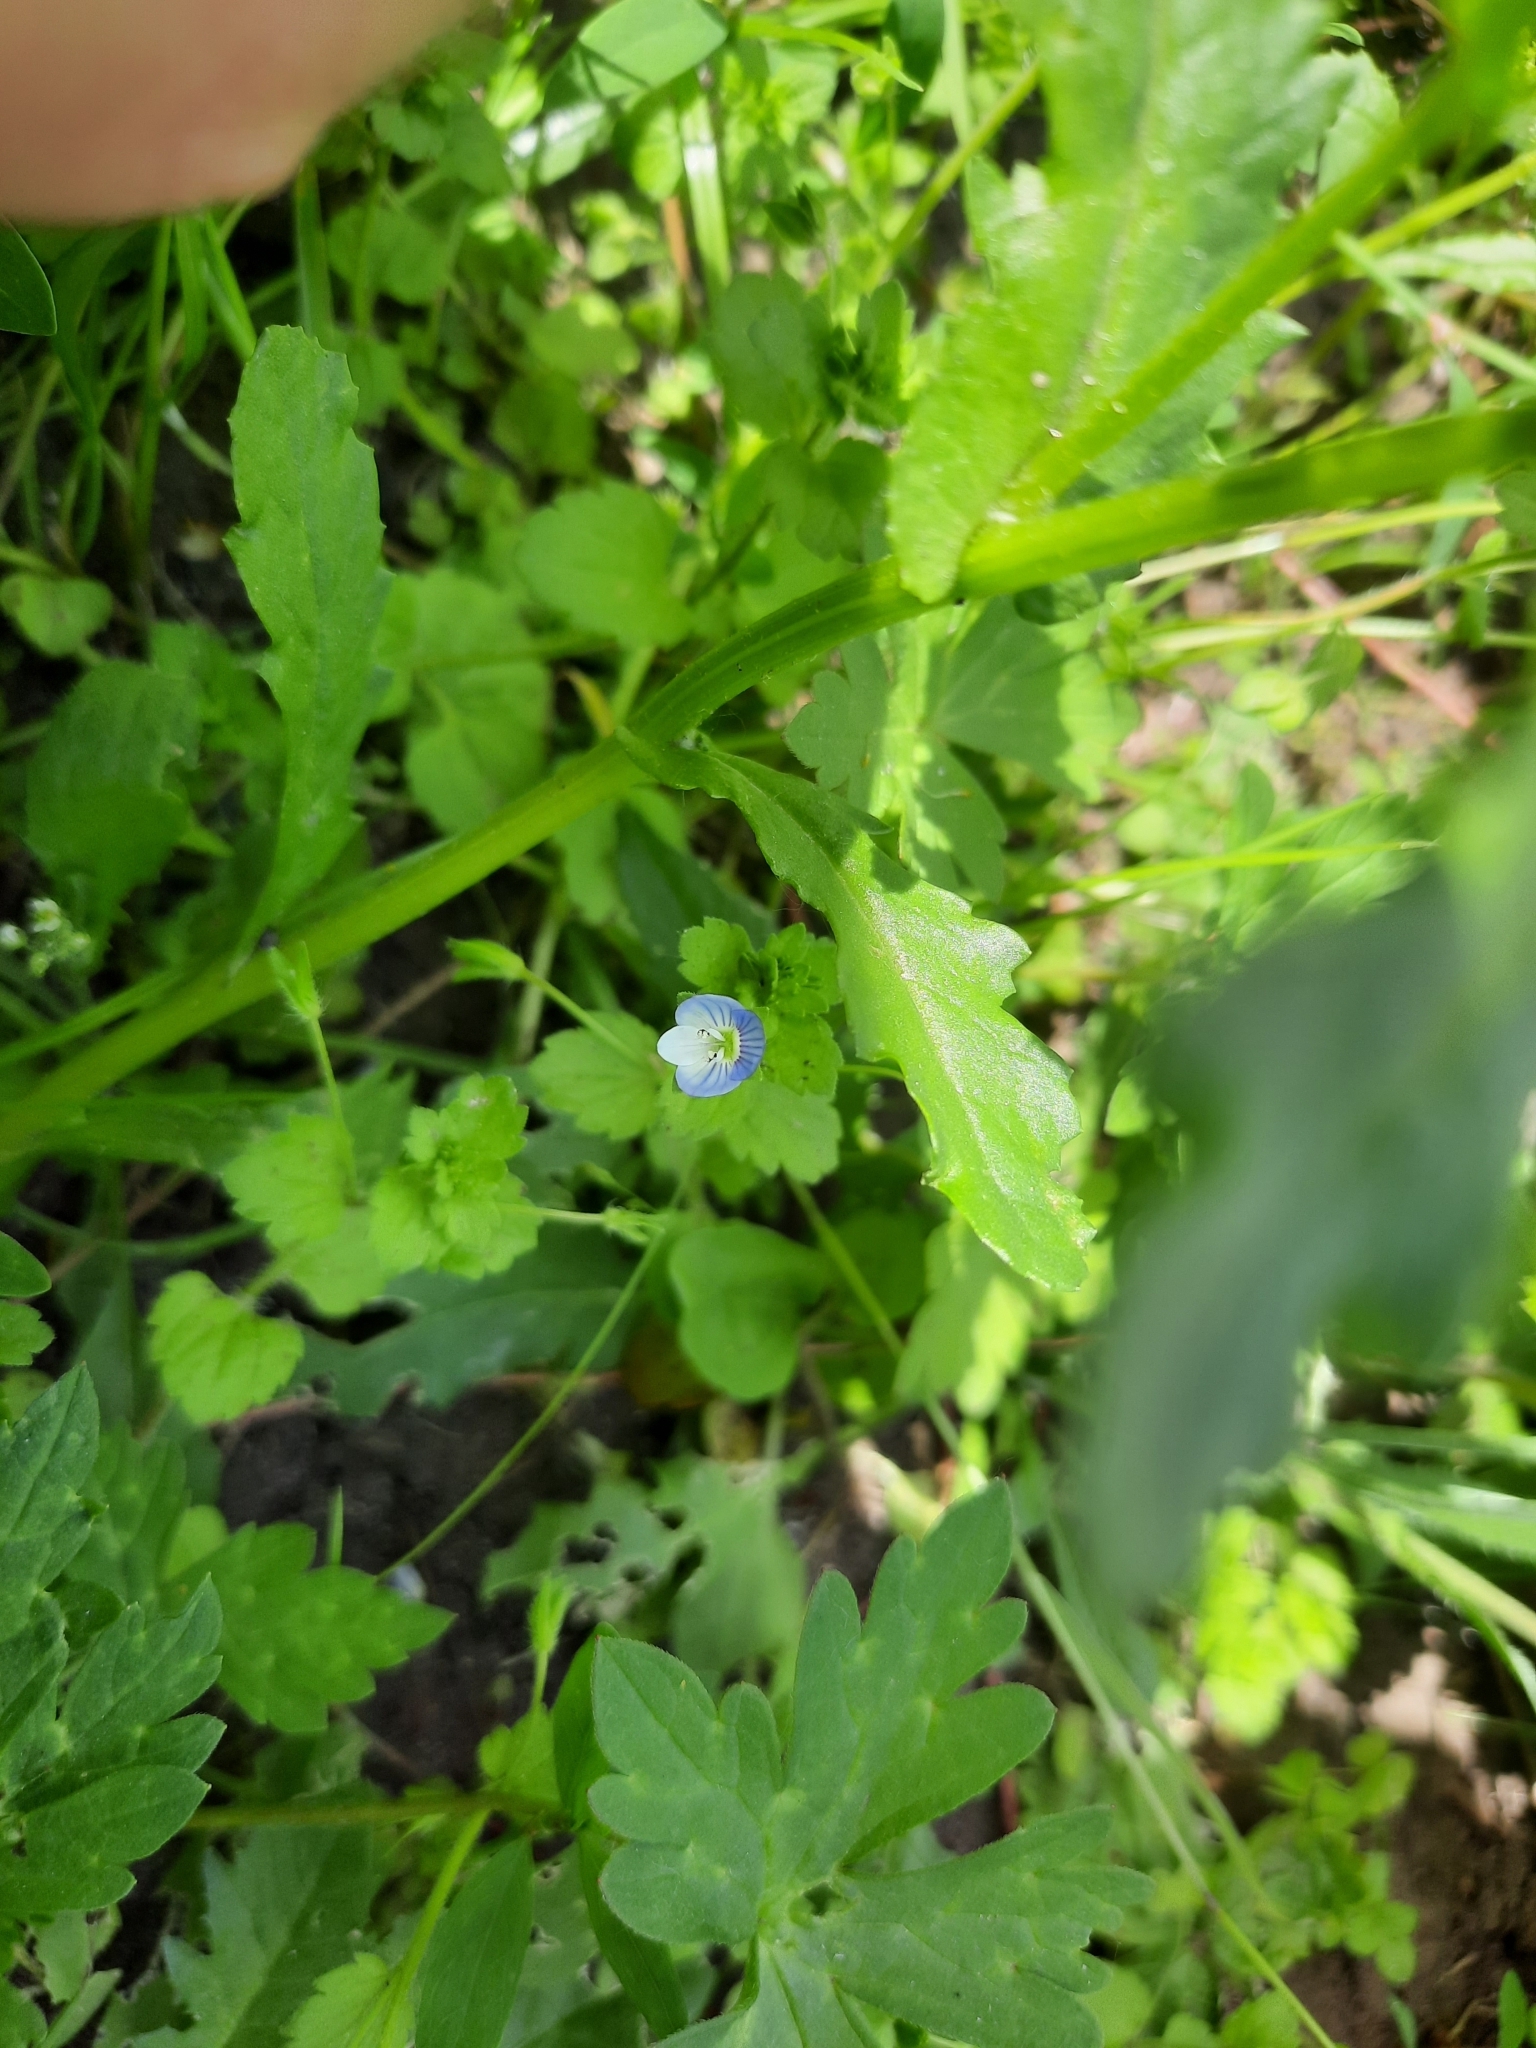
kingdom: Plantae
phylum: Tracheophyta
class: Magnoliopsida
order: Lamiales
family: Plantaginaceae
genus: Veronica
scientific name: Veronica persica
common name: Common field-speedwell
